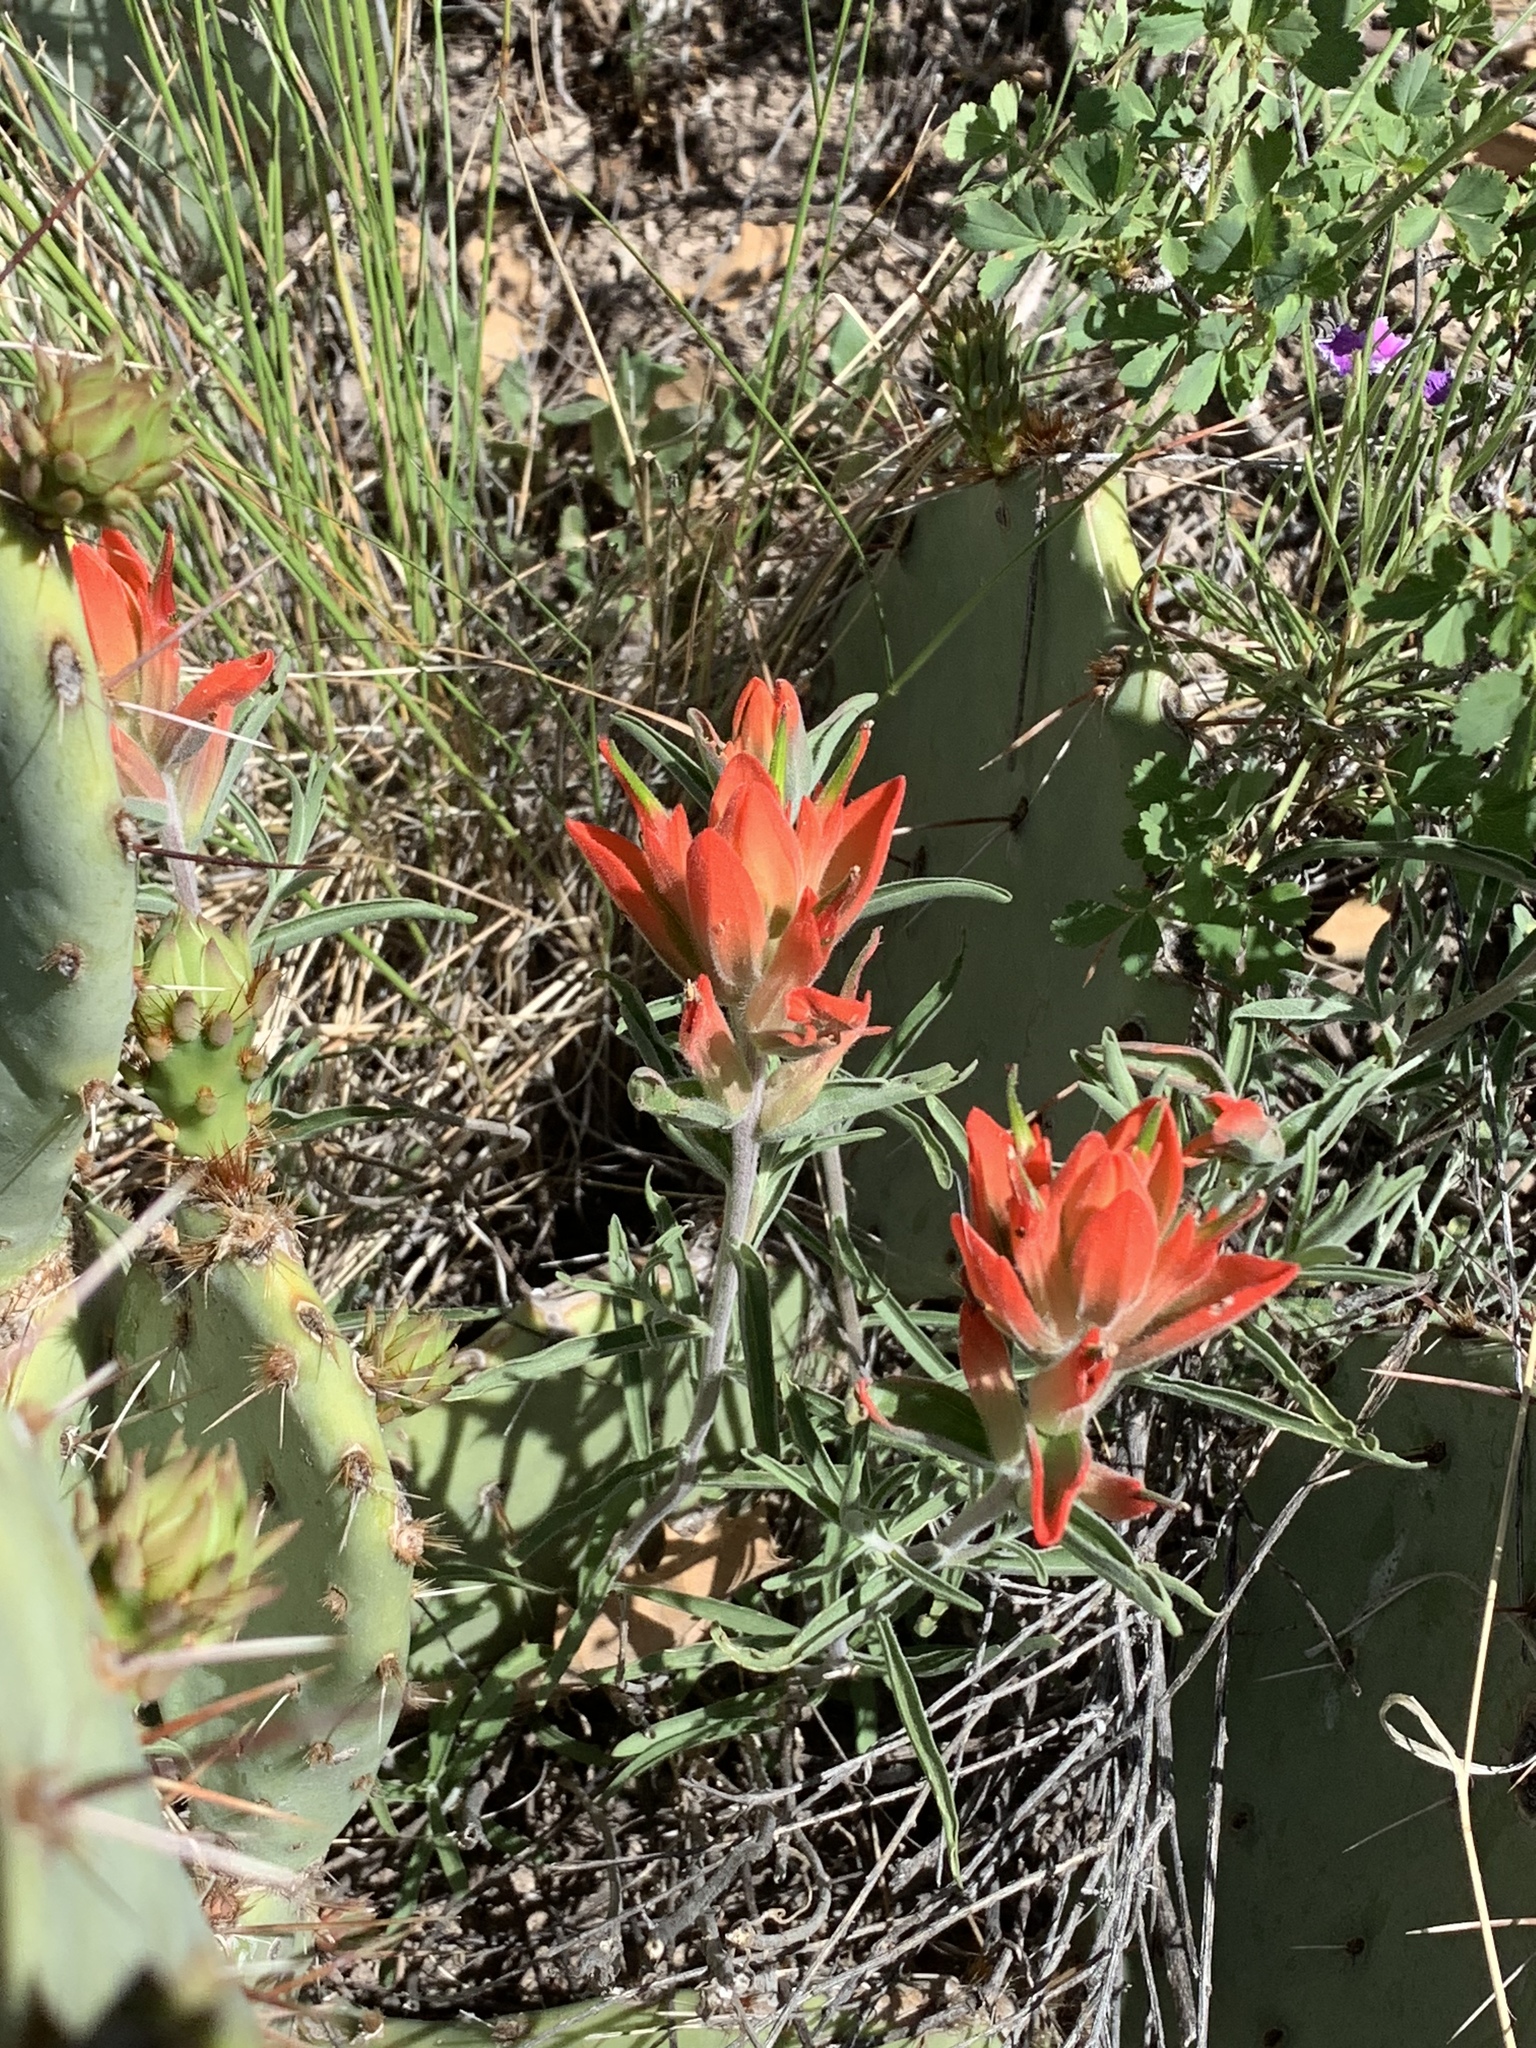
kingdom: Plantae
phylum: Tracheophyta
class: Magnoliopsida
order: Lamiales
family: Orobanchaceae
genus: Castilleja
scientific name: Castilleja integra
